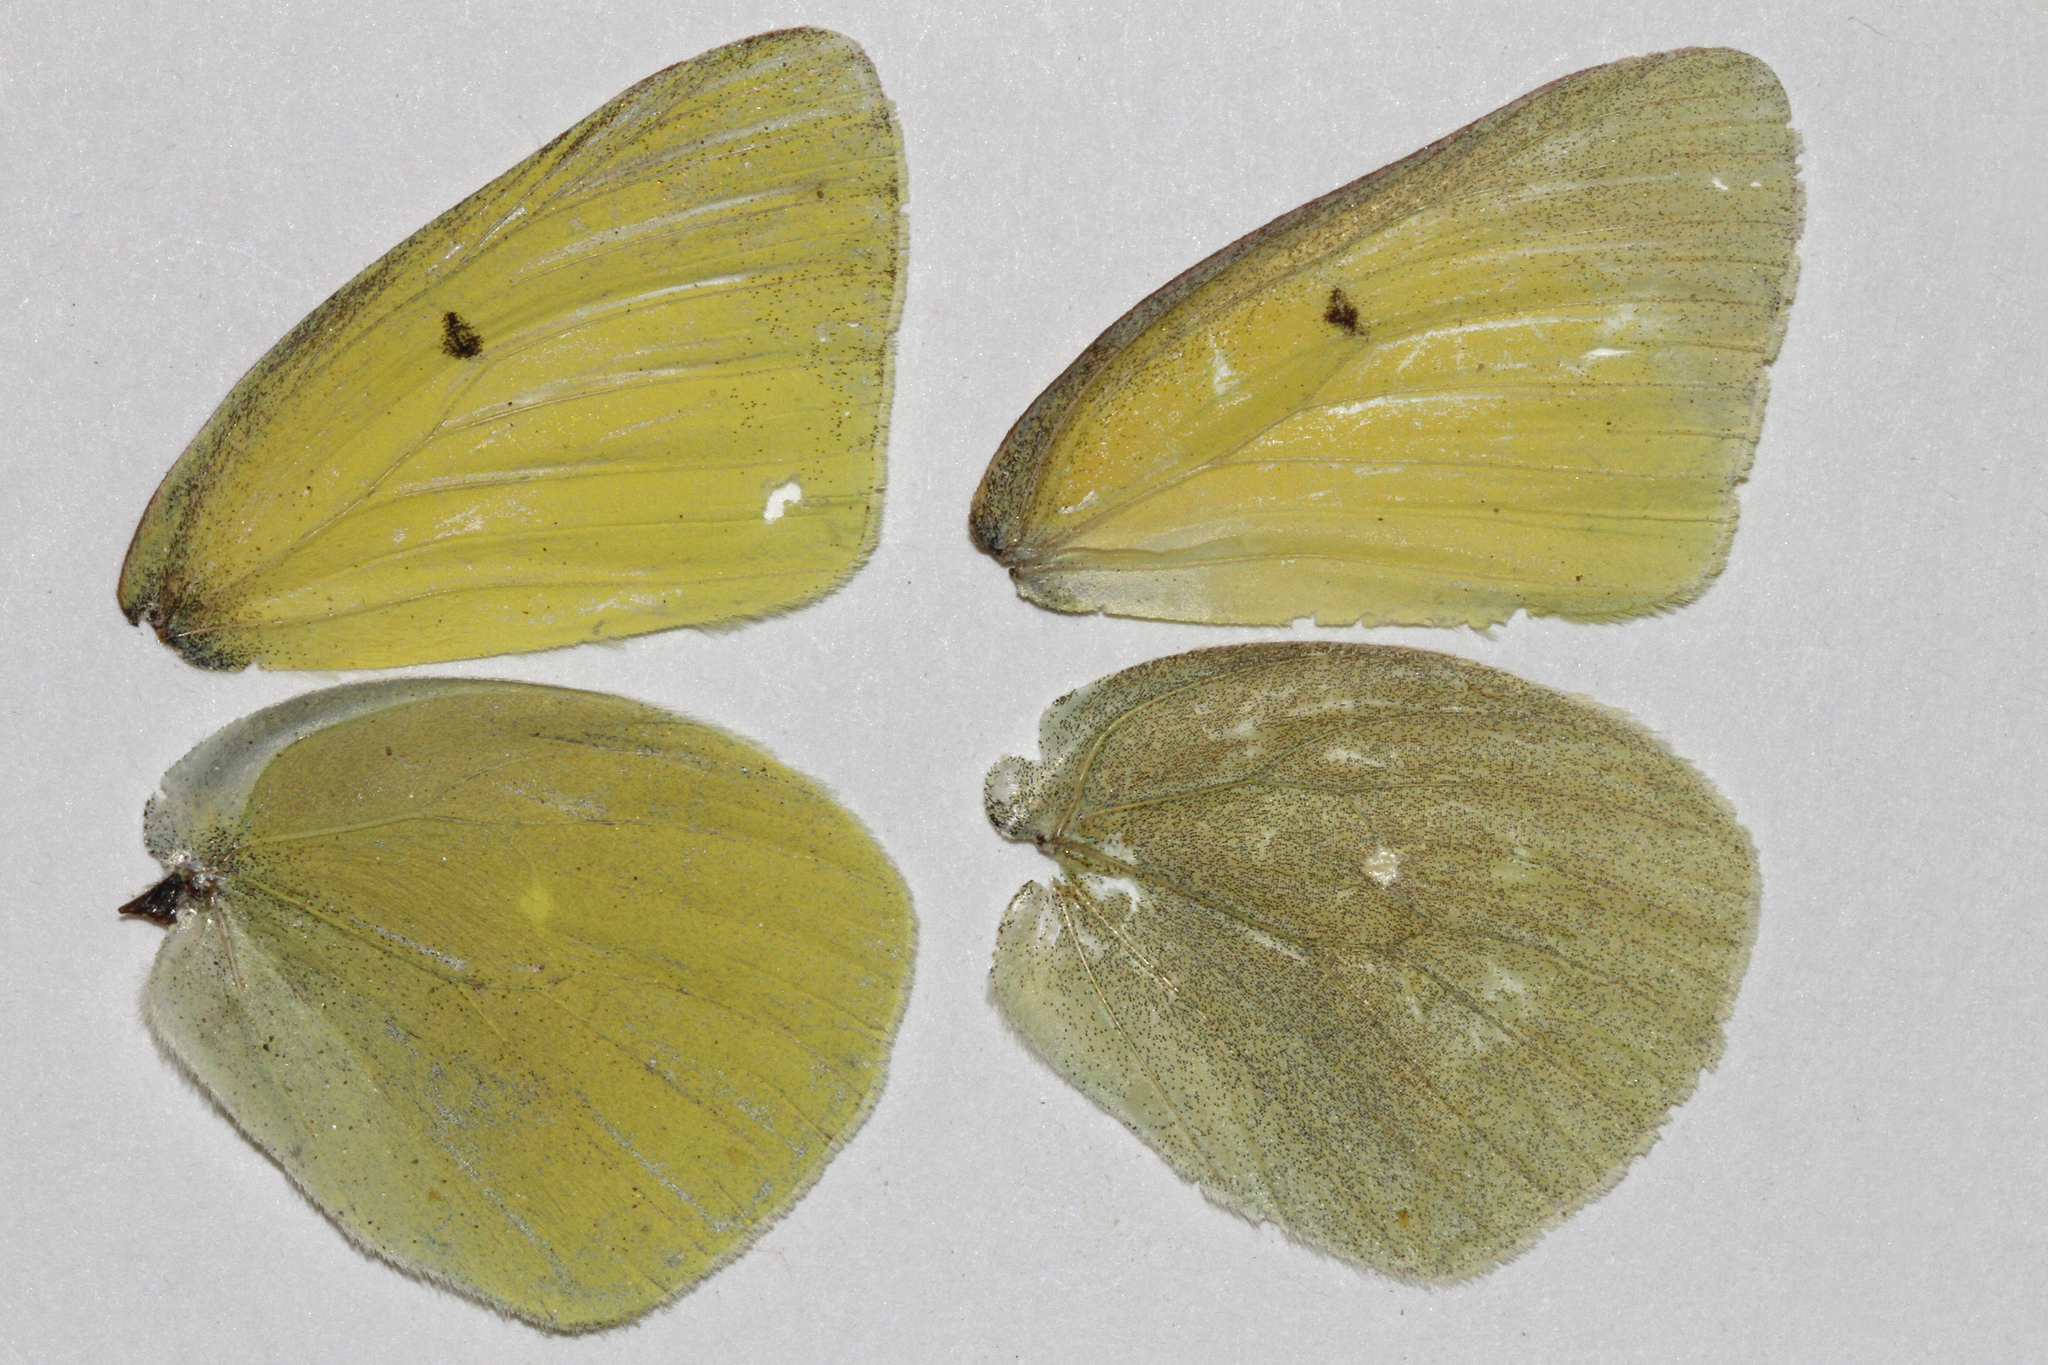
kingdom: Animalia
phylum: Arthropoda
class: Insecta
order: Lepidoptera
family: Pieridae
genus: Colias
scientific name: Colias alexandra
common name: Alexandra sulphur
